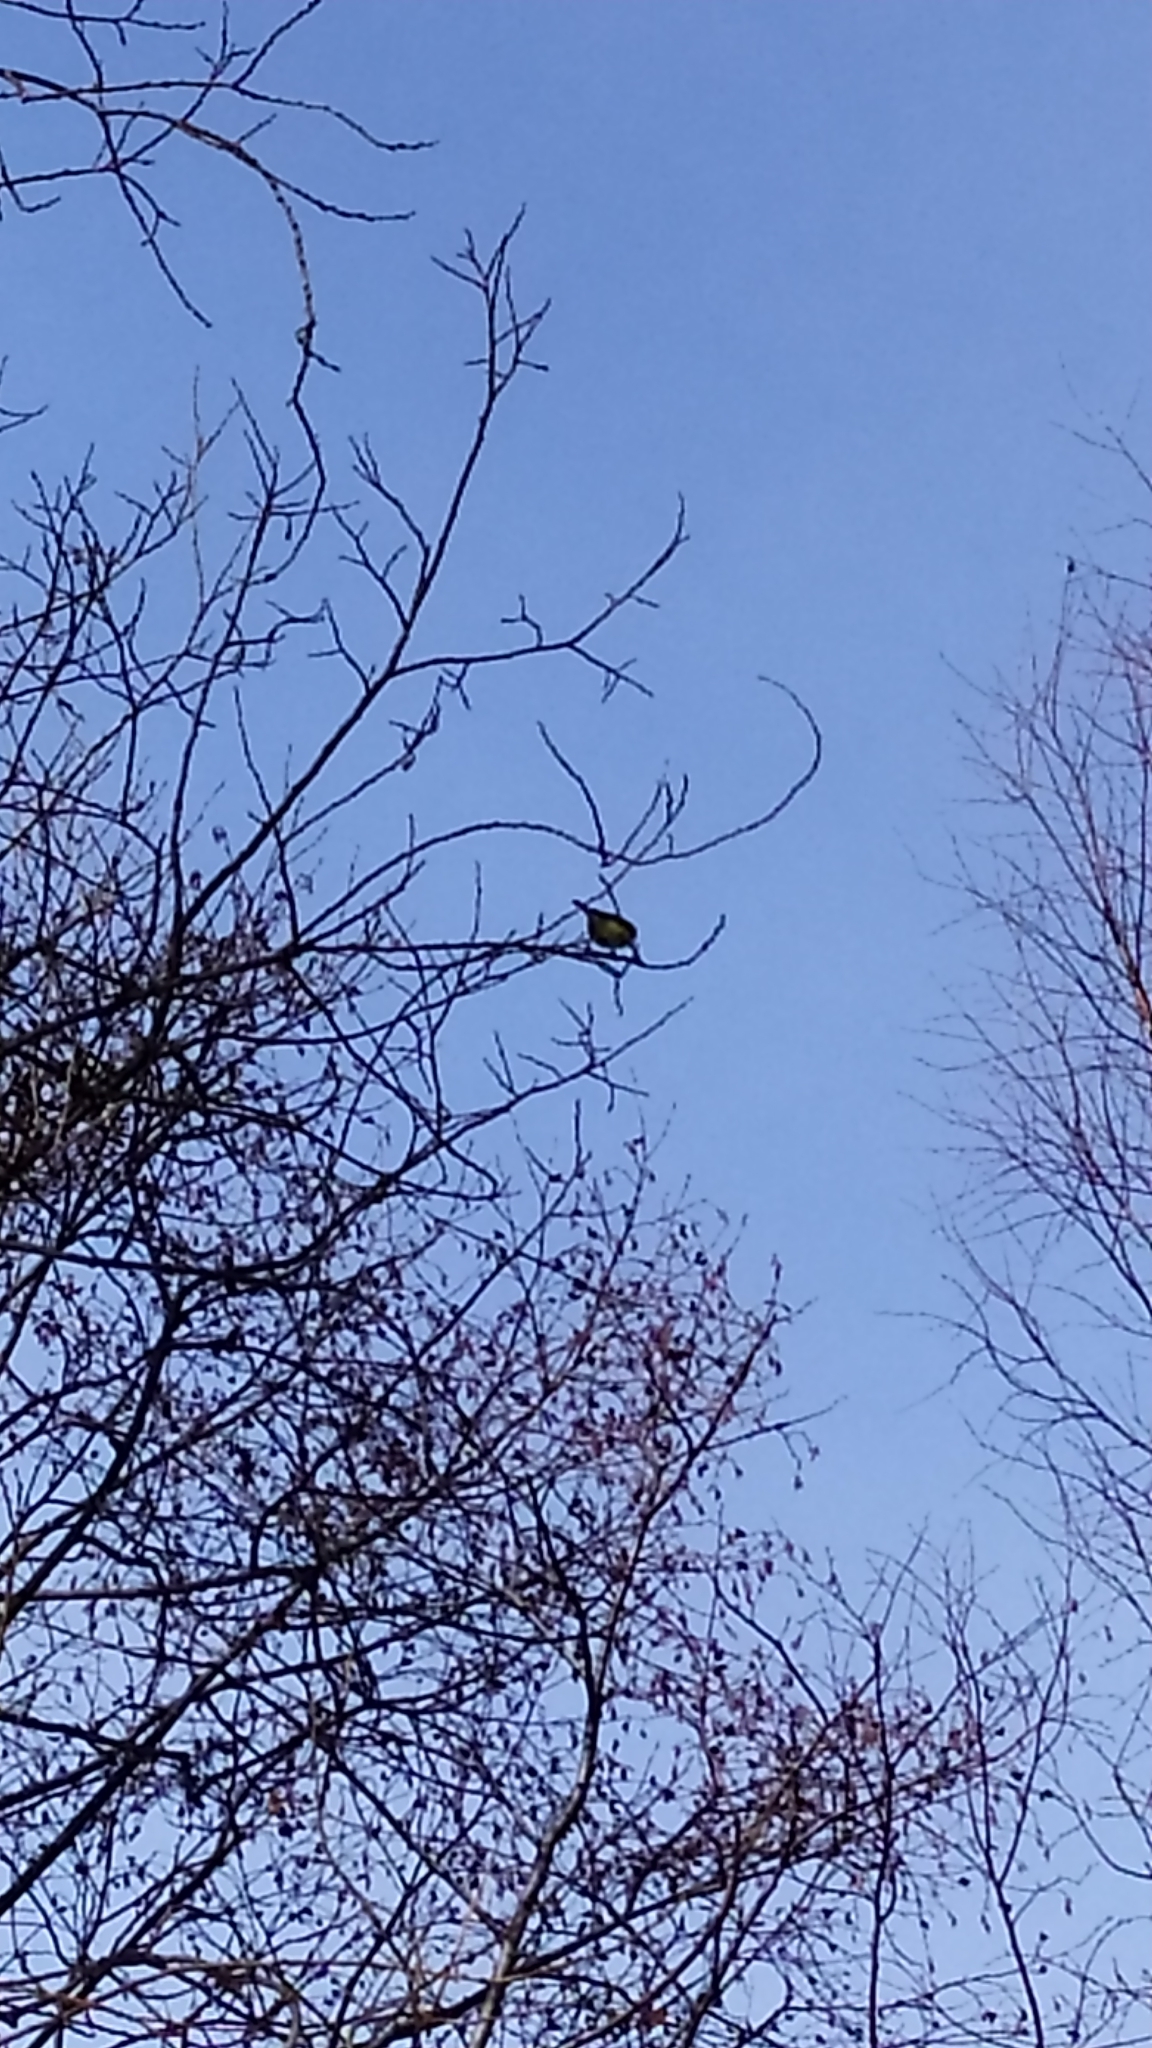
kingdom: Animalia
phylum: Chordata
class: Aves
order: Passeriformes
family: Paridae
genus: Cyanistes
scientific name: Cyanistes caeruleus
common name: Eurasian blue tit
